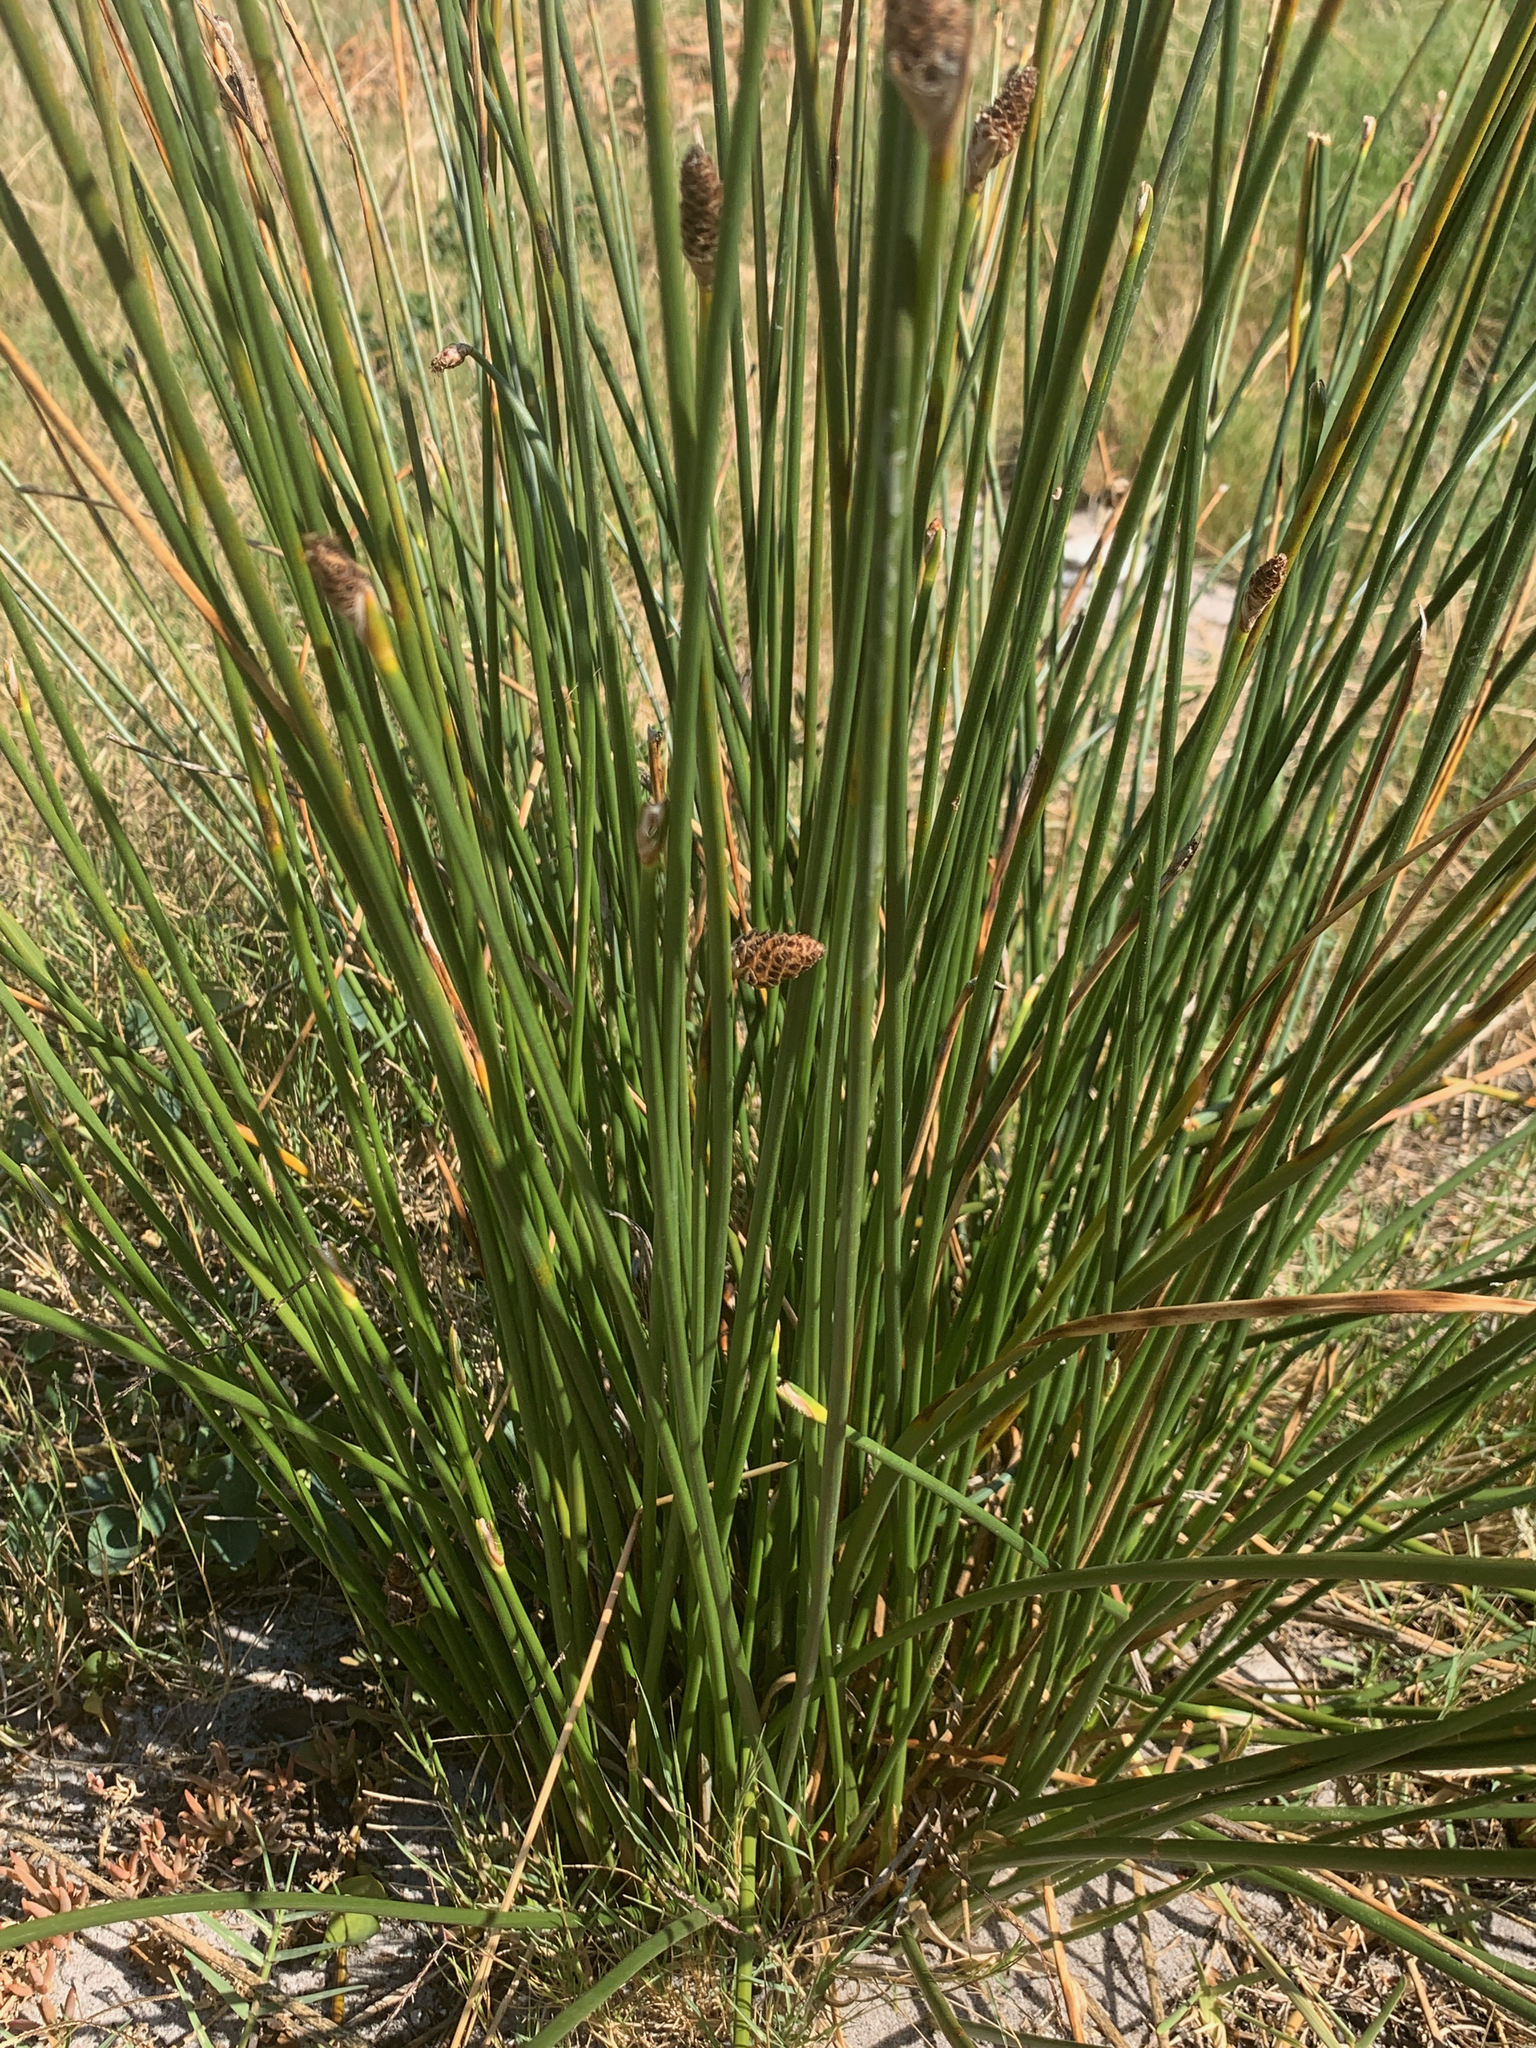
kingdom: Plantae
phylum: Tracheophyta
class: Liliopsida
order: Poales
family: Cyperaceae
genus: Hellmuthia
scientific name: Hellmuthia membranacea
